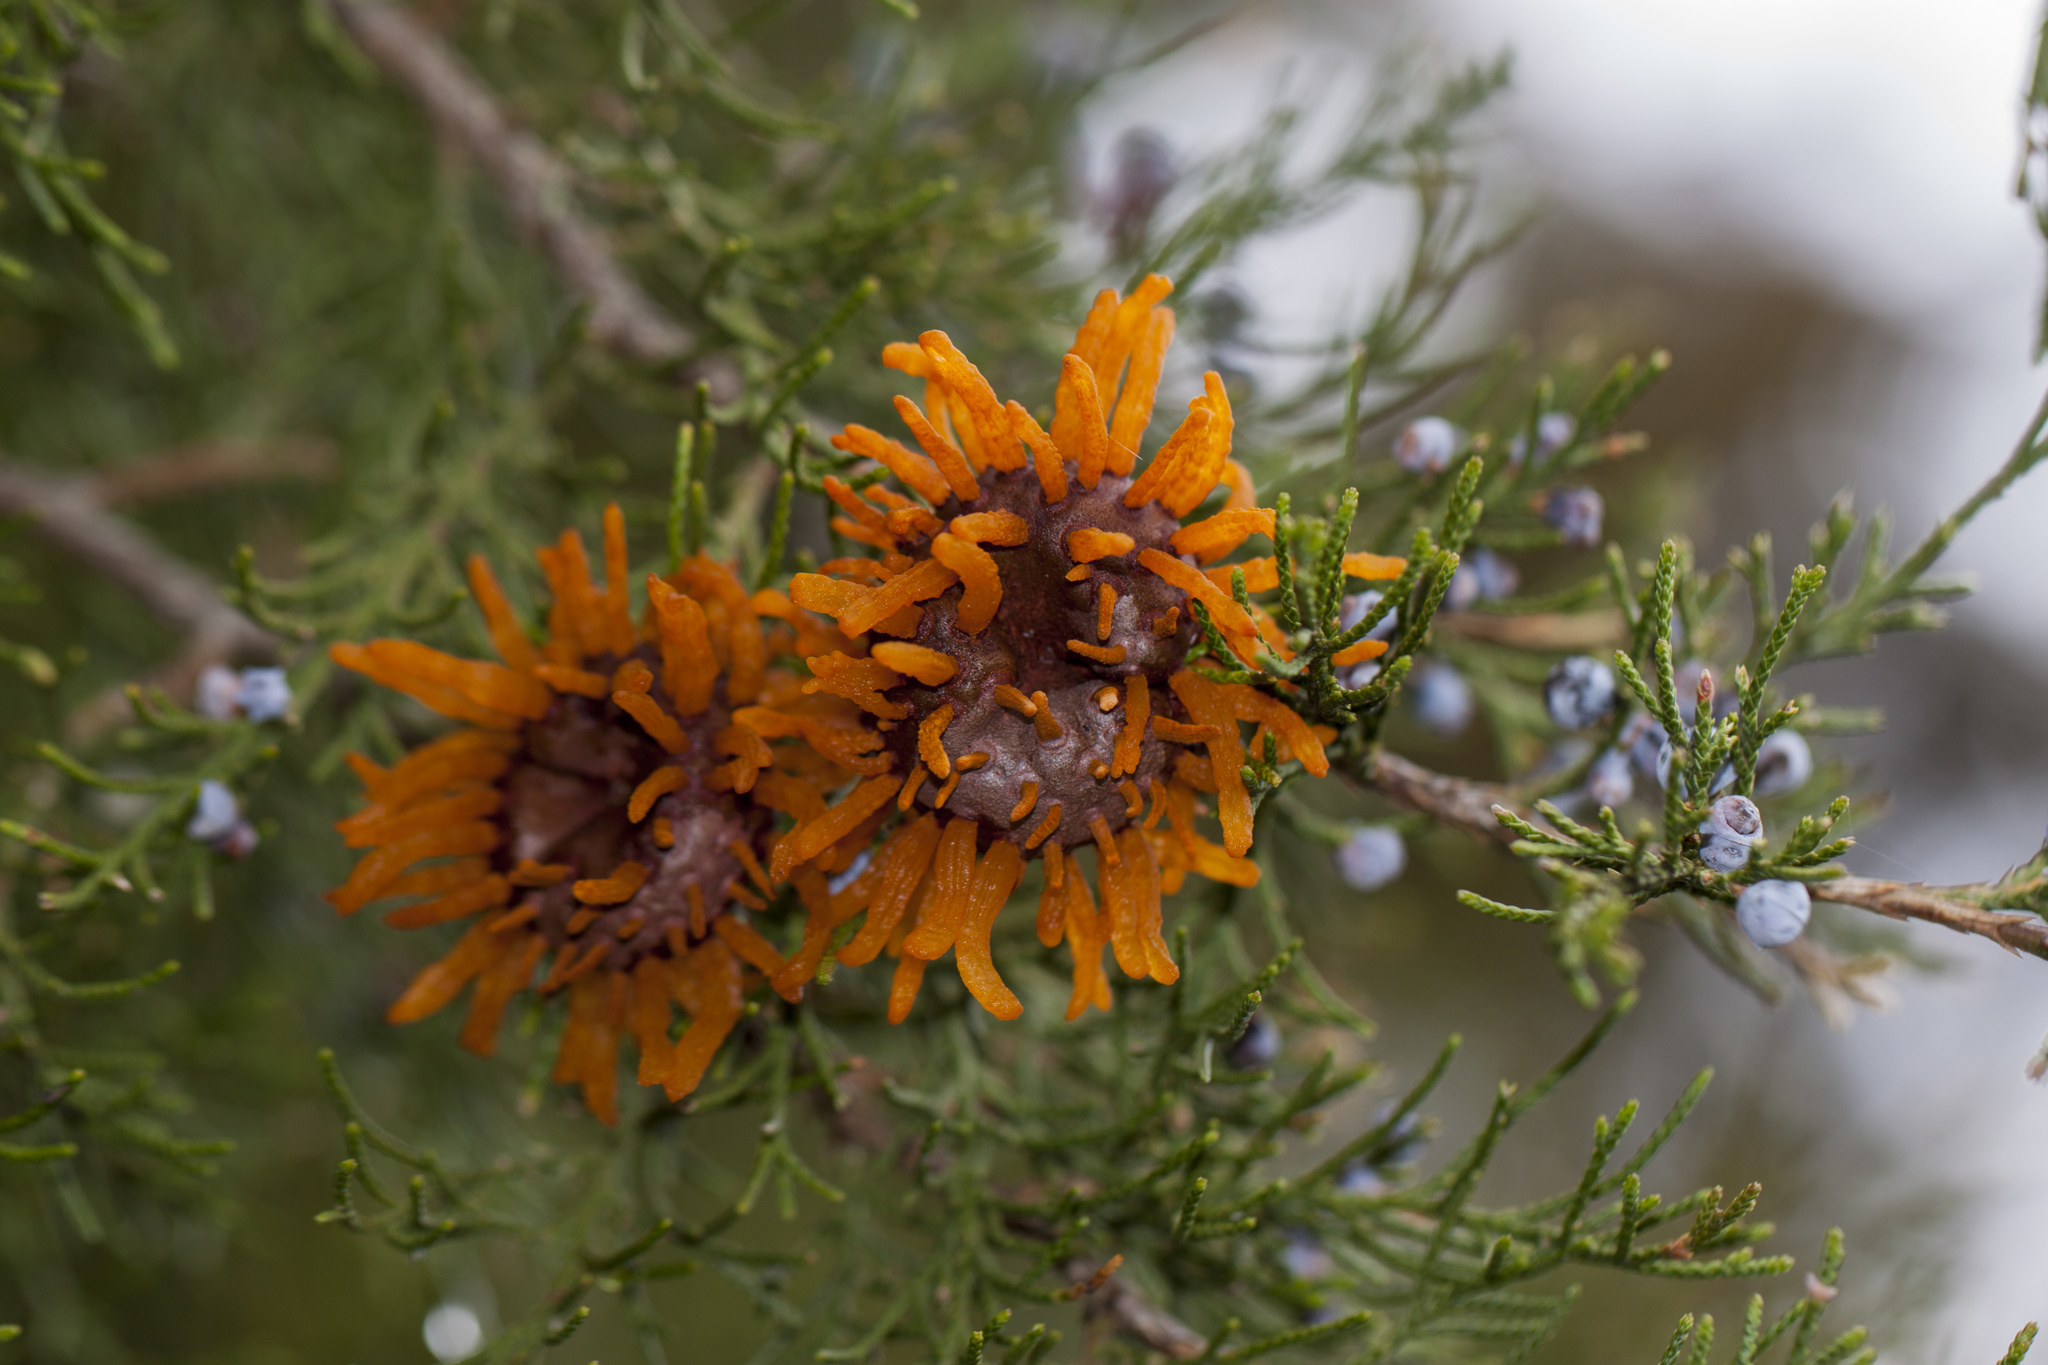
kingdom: Fungi
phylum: Basidiomycota
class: Pucciniomycetes
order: Pucciniales
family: Gymnosporangiaceae
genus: Gymnosporangium
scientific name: Gymnosporangium juniperi-virginianae
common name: Juniper-apple rust
